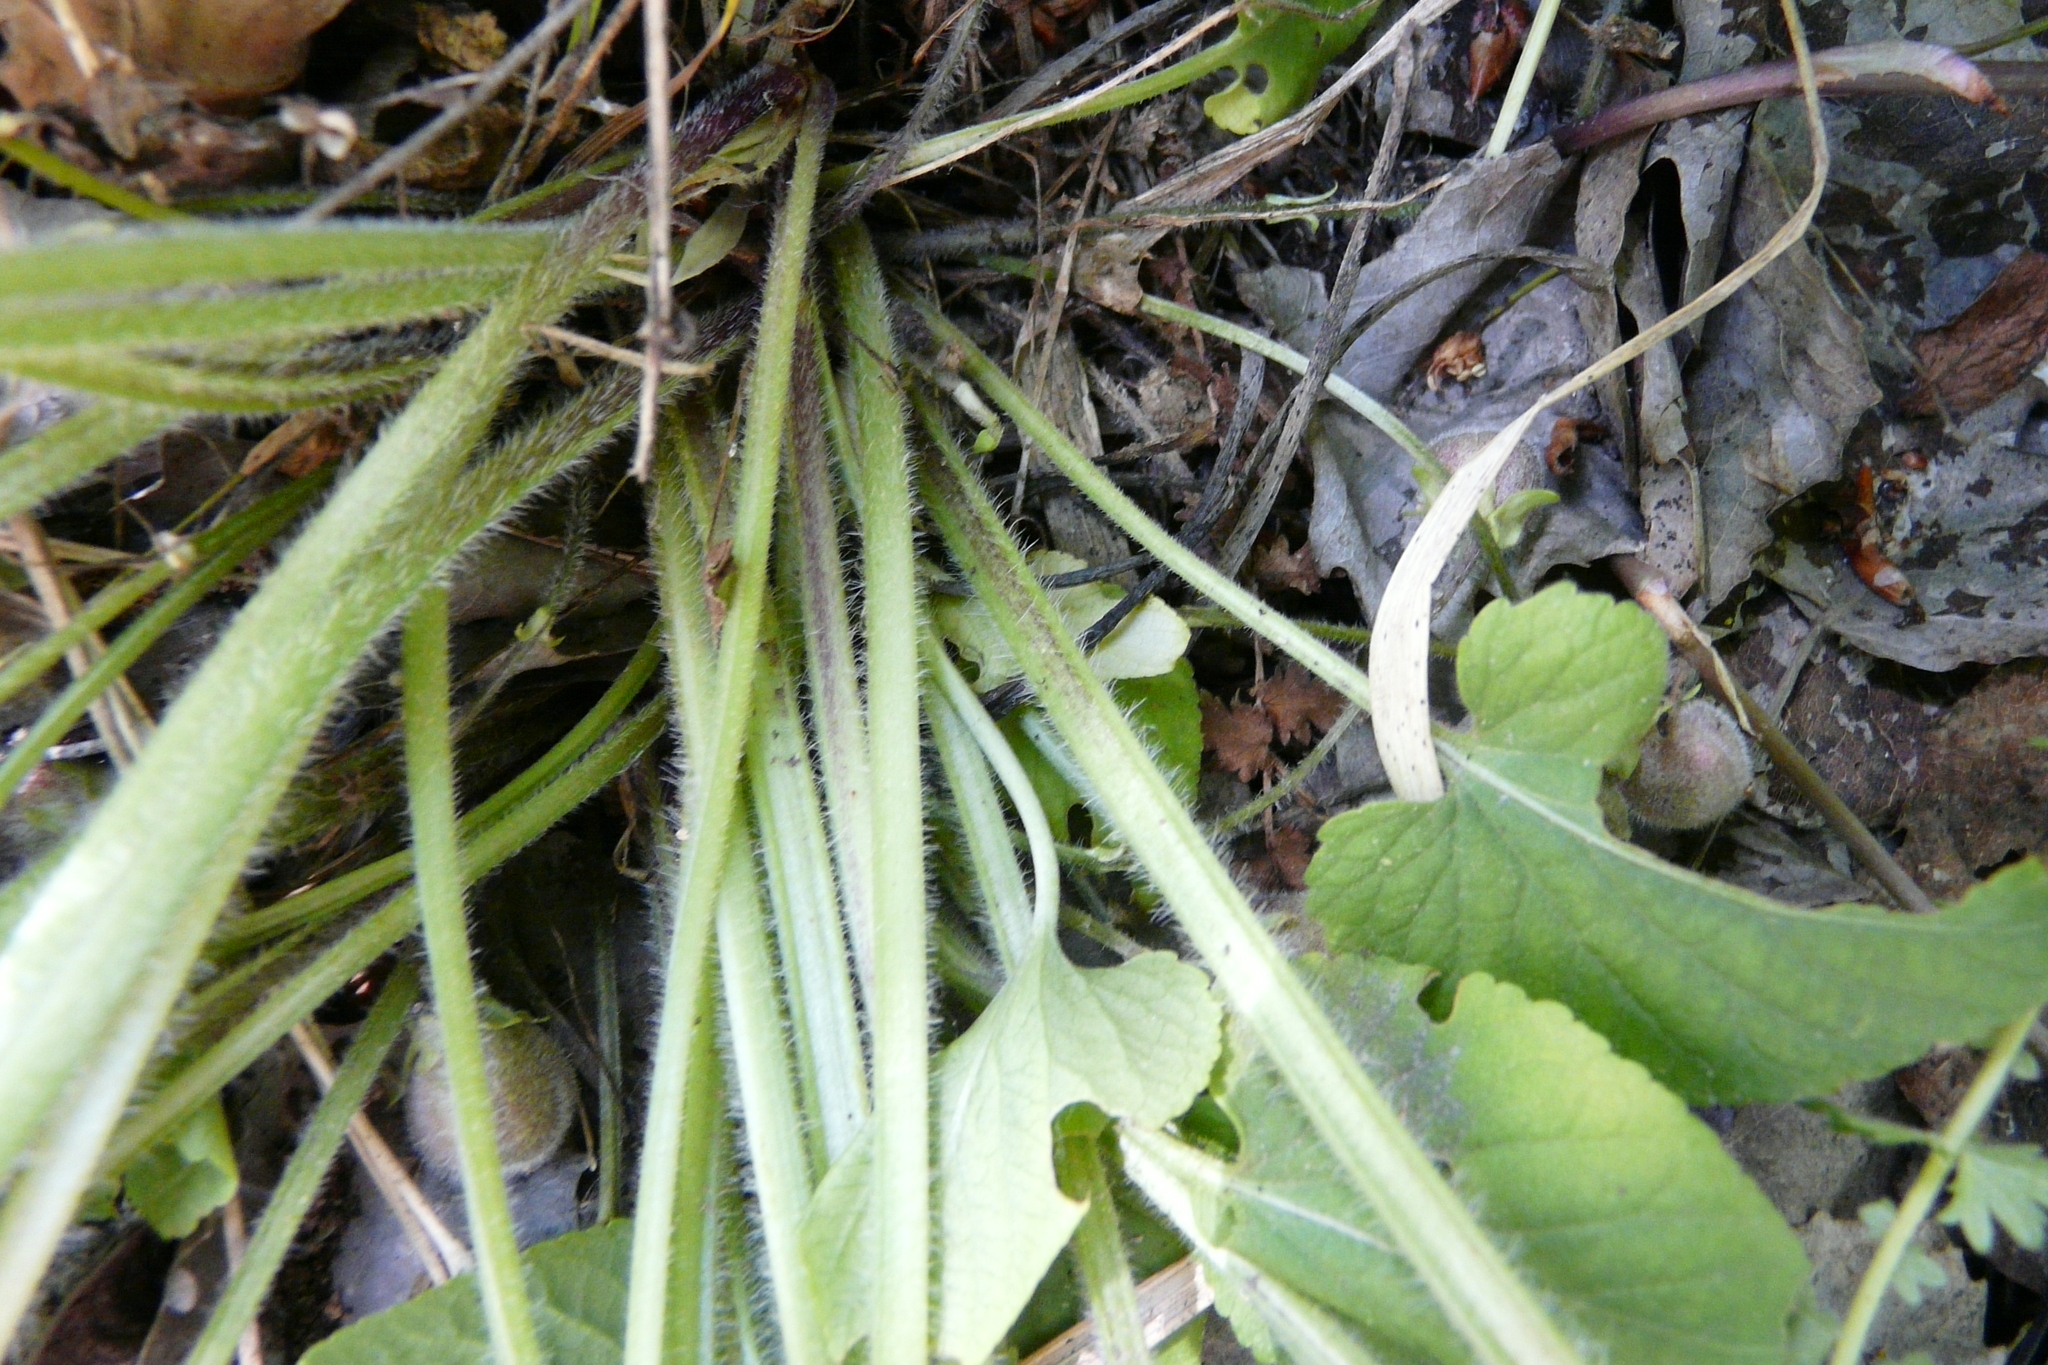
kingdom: Plantae
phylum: Tracheophyta
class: Magnoliopsida
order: Malpighiales
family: Violaceae
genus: Viola
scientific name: Viola hirta
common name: Hairy violet
